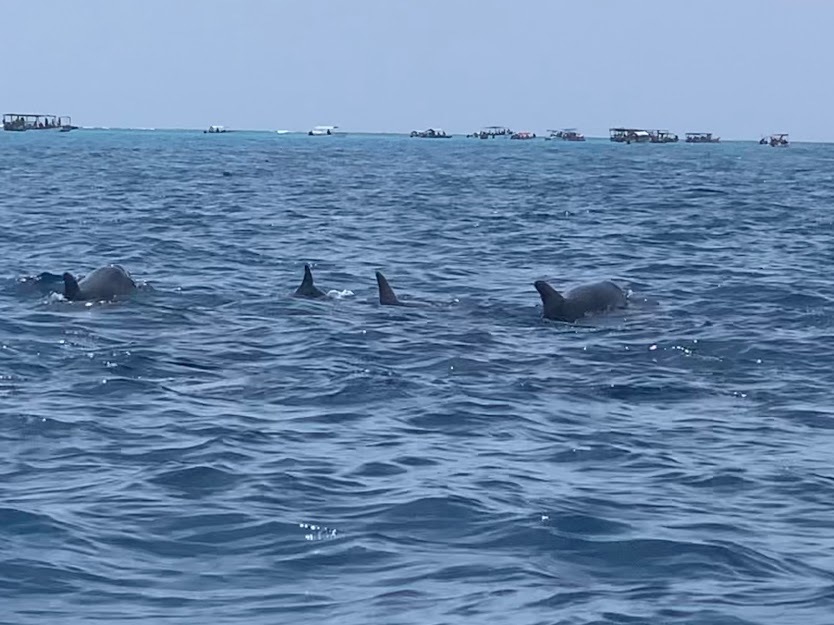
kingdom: Animalia
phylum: Chordata
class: Mammalia
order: Cetacea
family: Delphinidae
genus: Tursiops
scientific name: Tursiops aduncus
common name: Indo-pacific bottlenose dolphin
